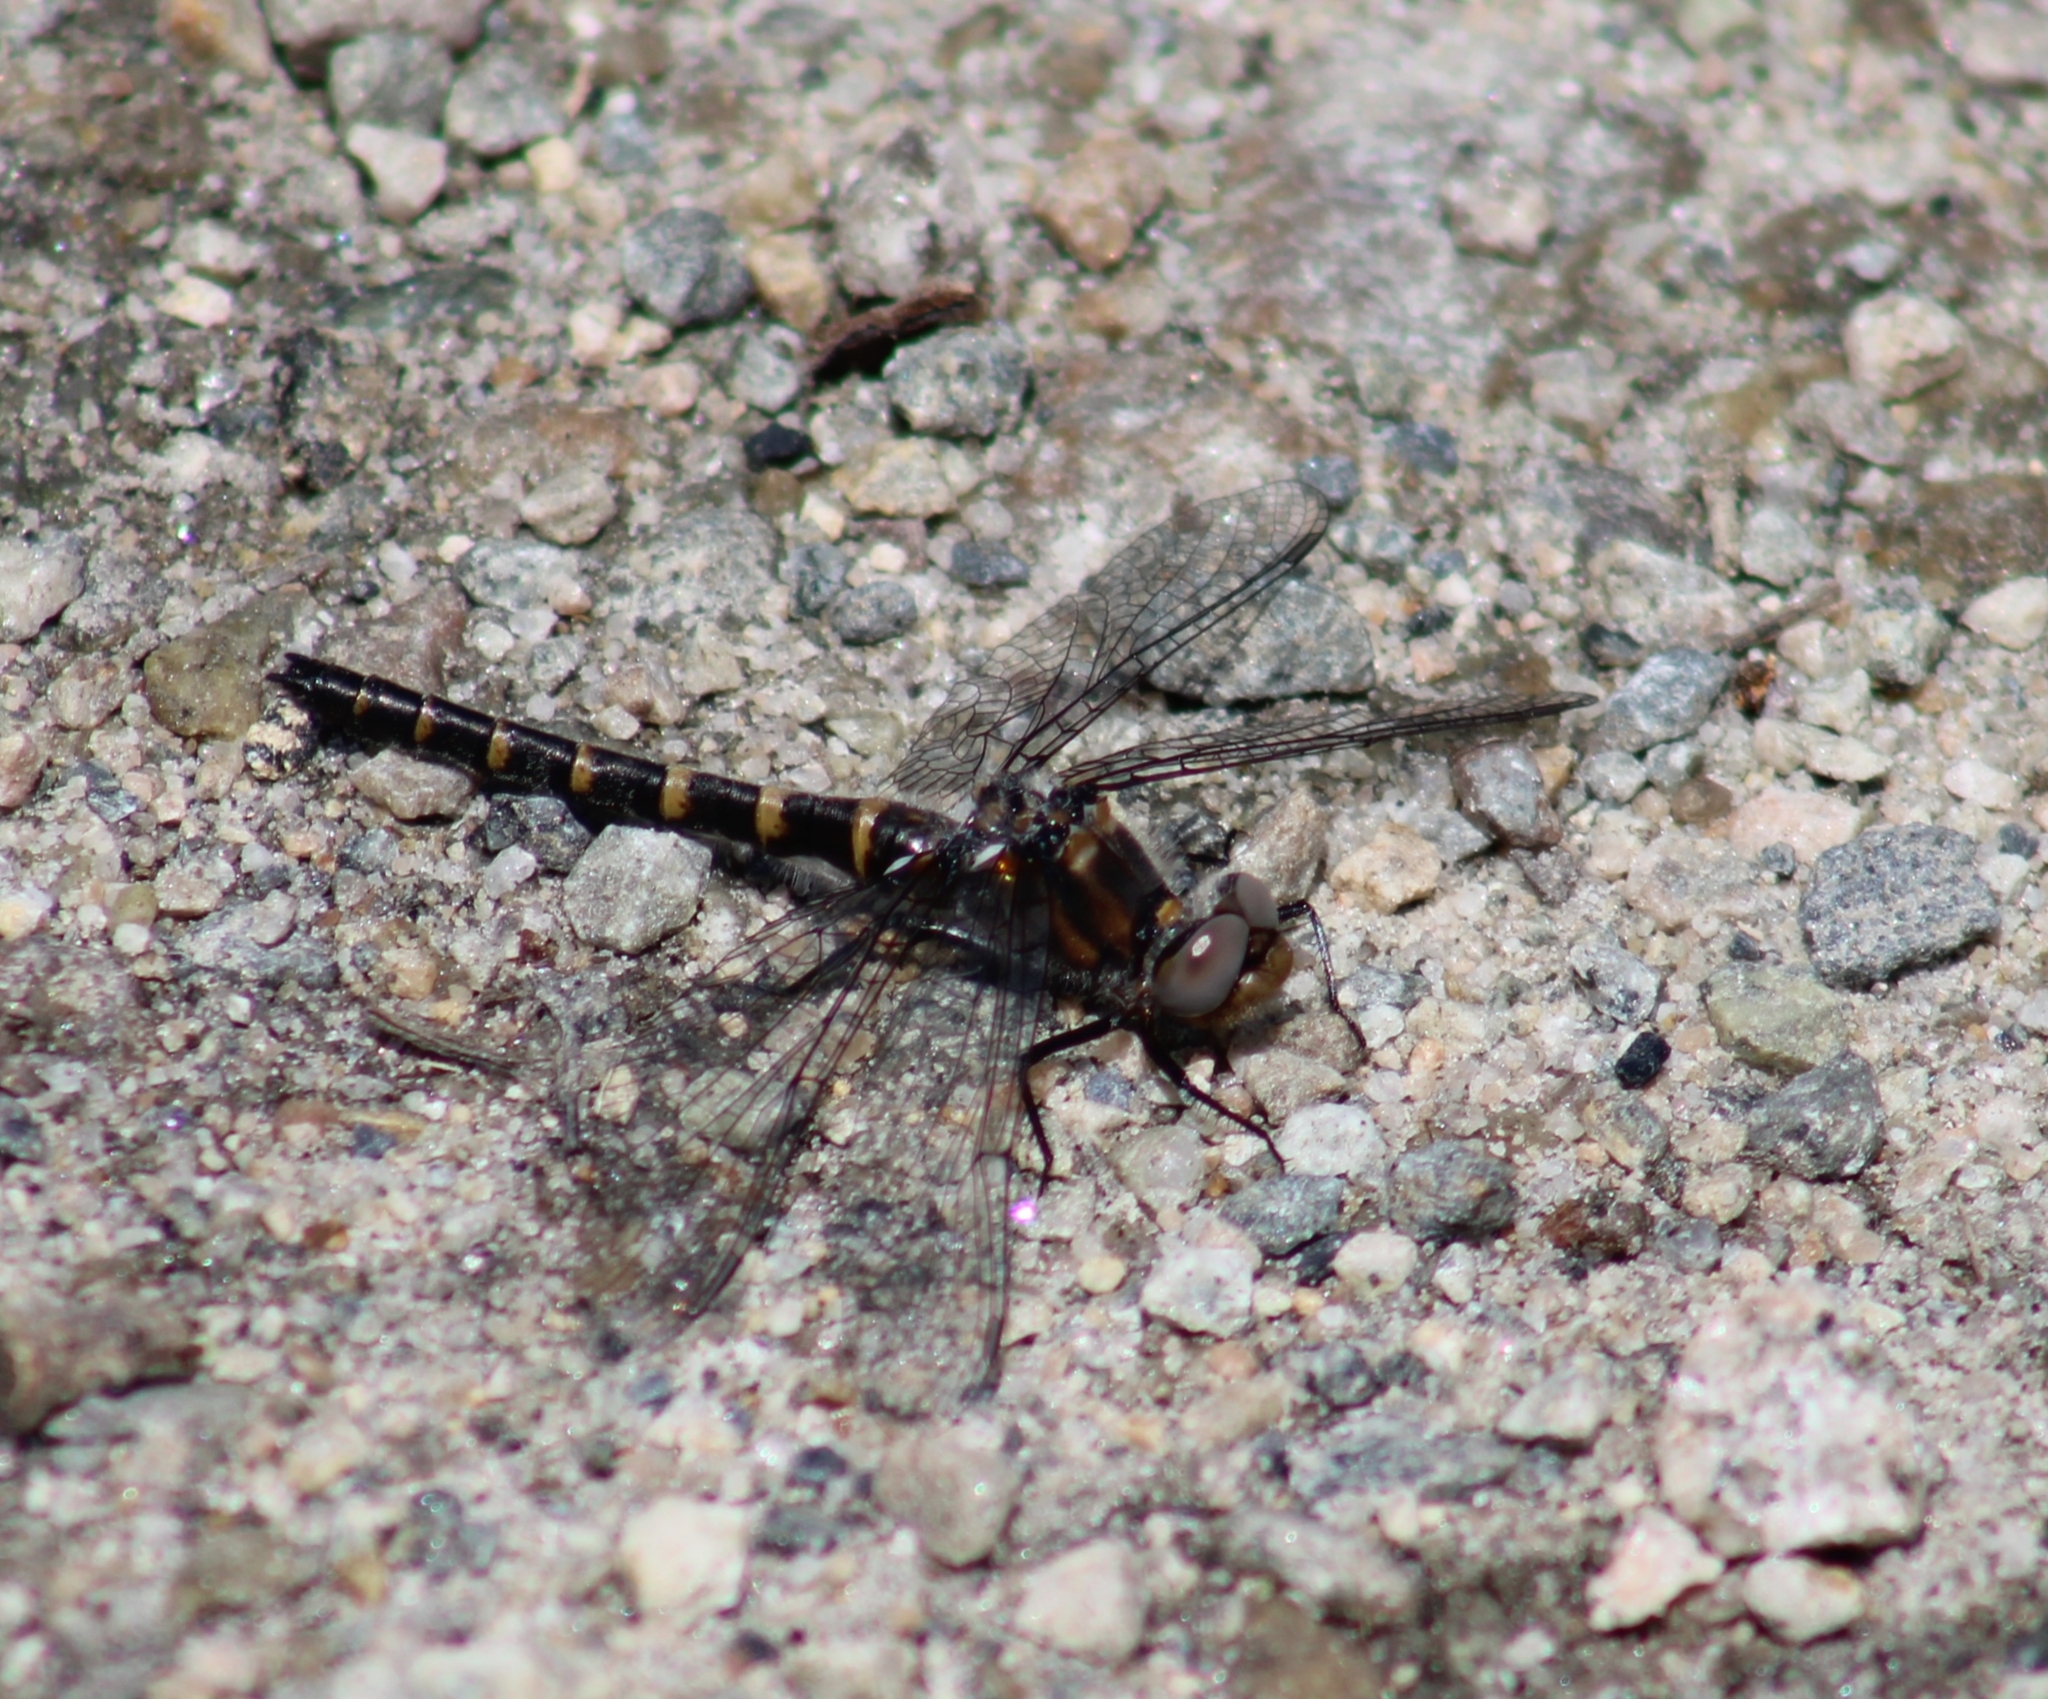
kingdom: Animalia
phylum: Arthropoda
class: Insecta
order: Odonata
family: Corduliidae
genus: Williamsonia
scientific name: Williamsonia lintneri
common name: Ringed boghaunter
